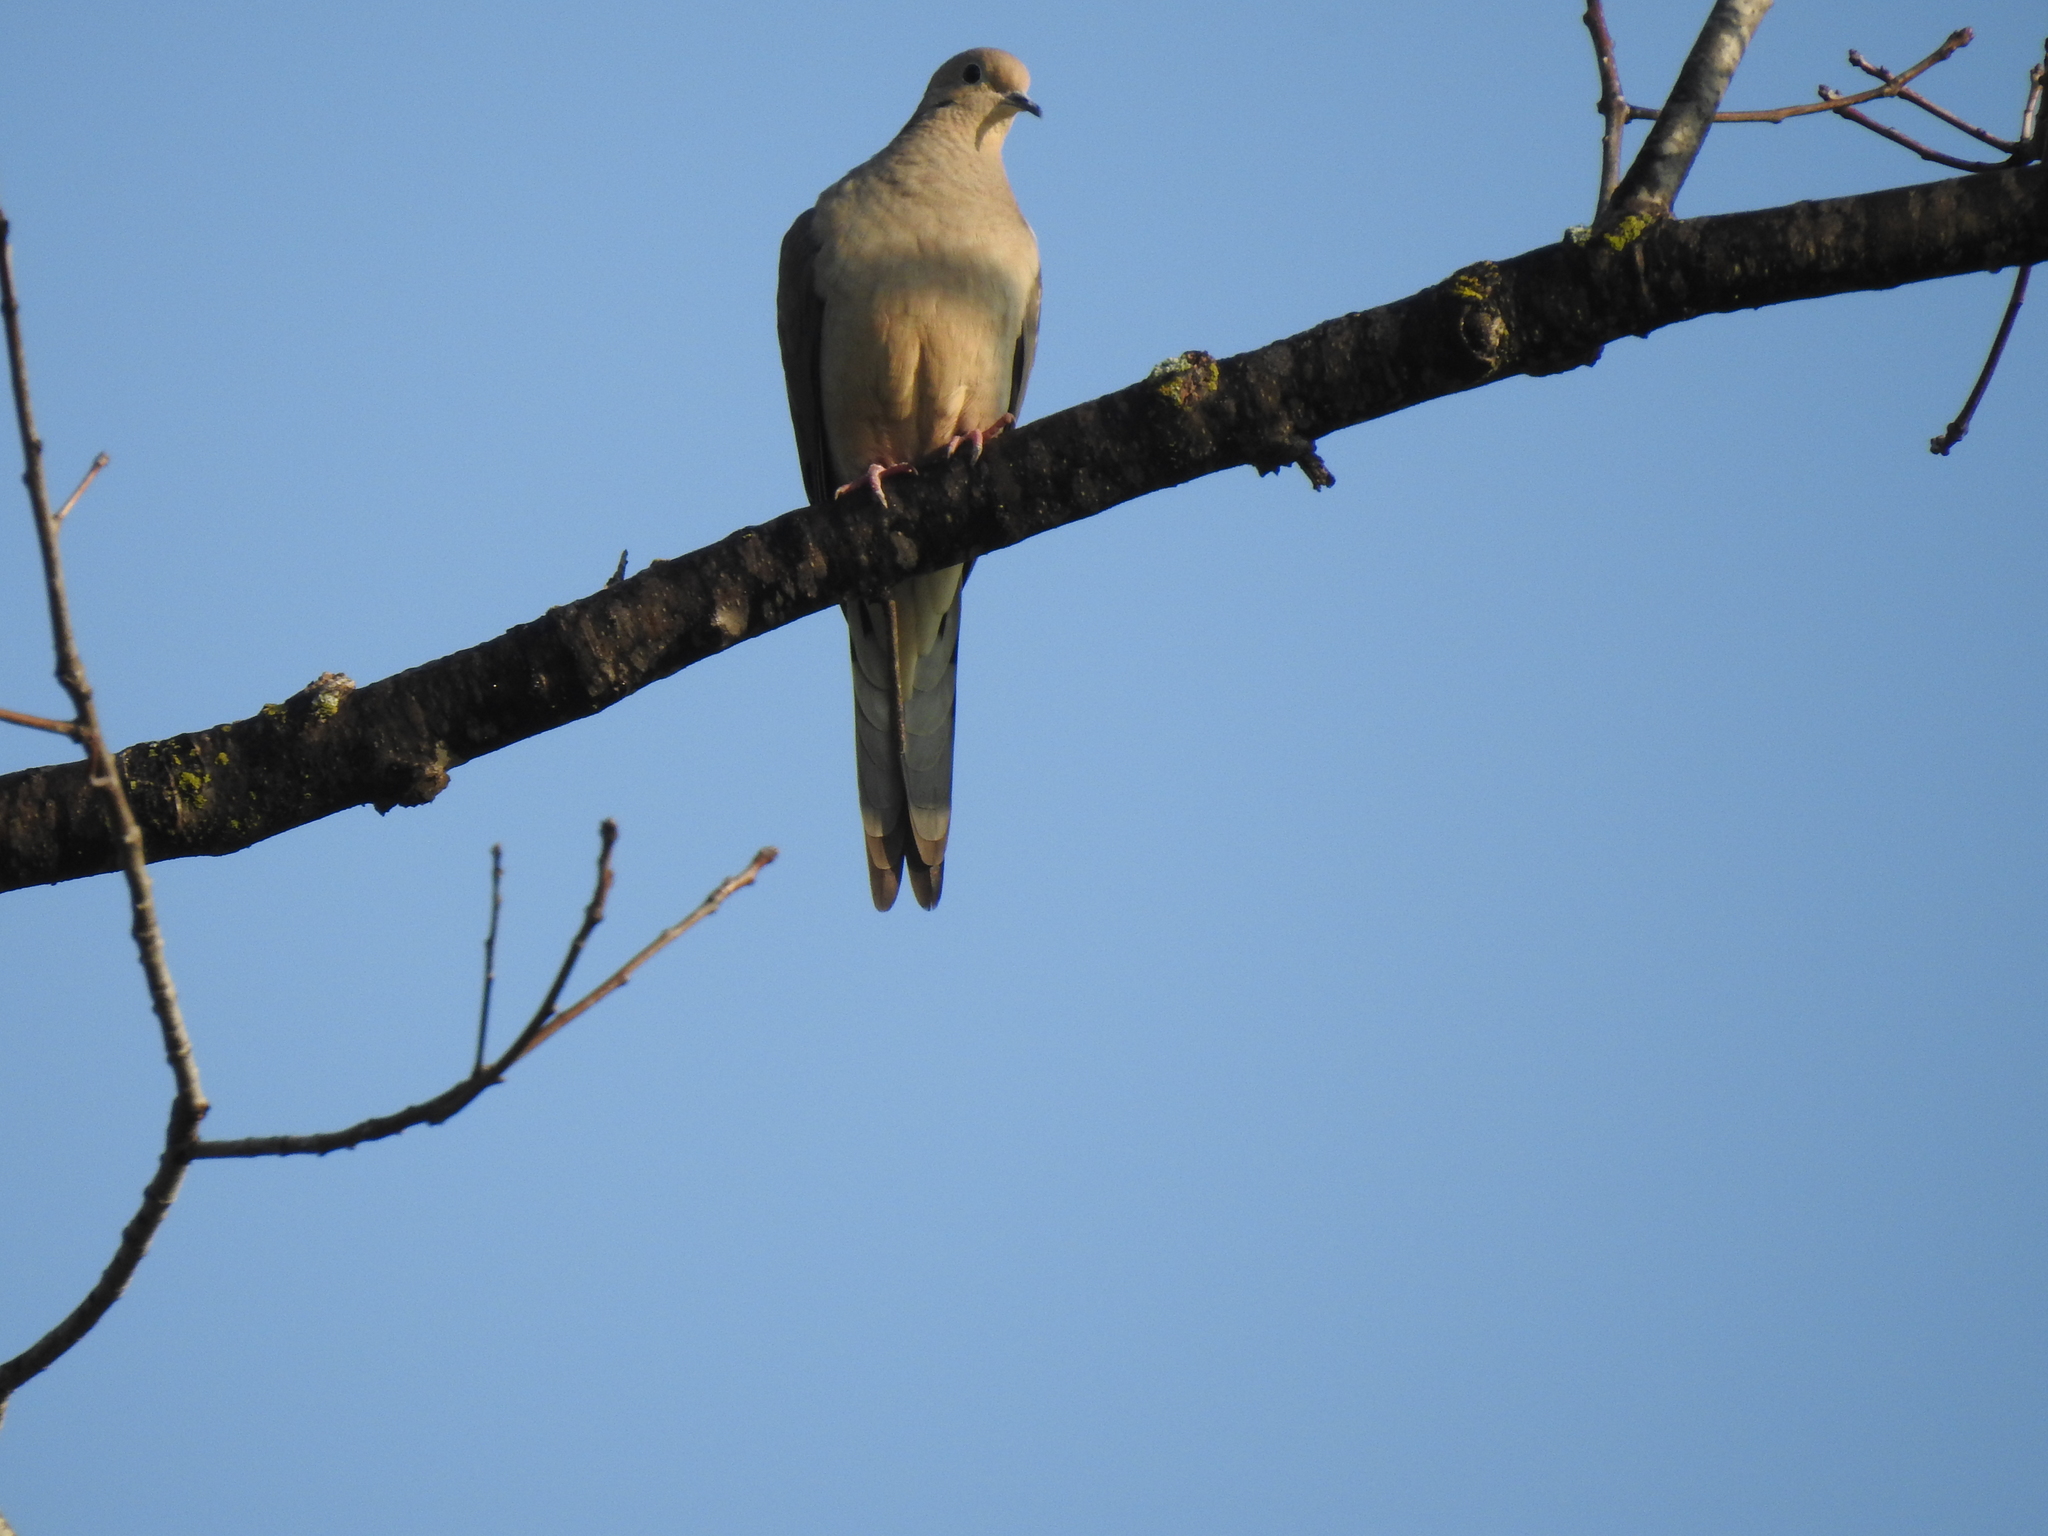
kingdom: Animalia
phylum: Chordata
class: Aves
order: Columbiformes
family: Columbidae
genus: Zenaida
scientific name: Zenaida macroura
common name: Mourning dove
